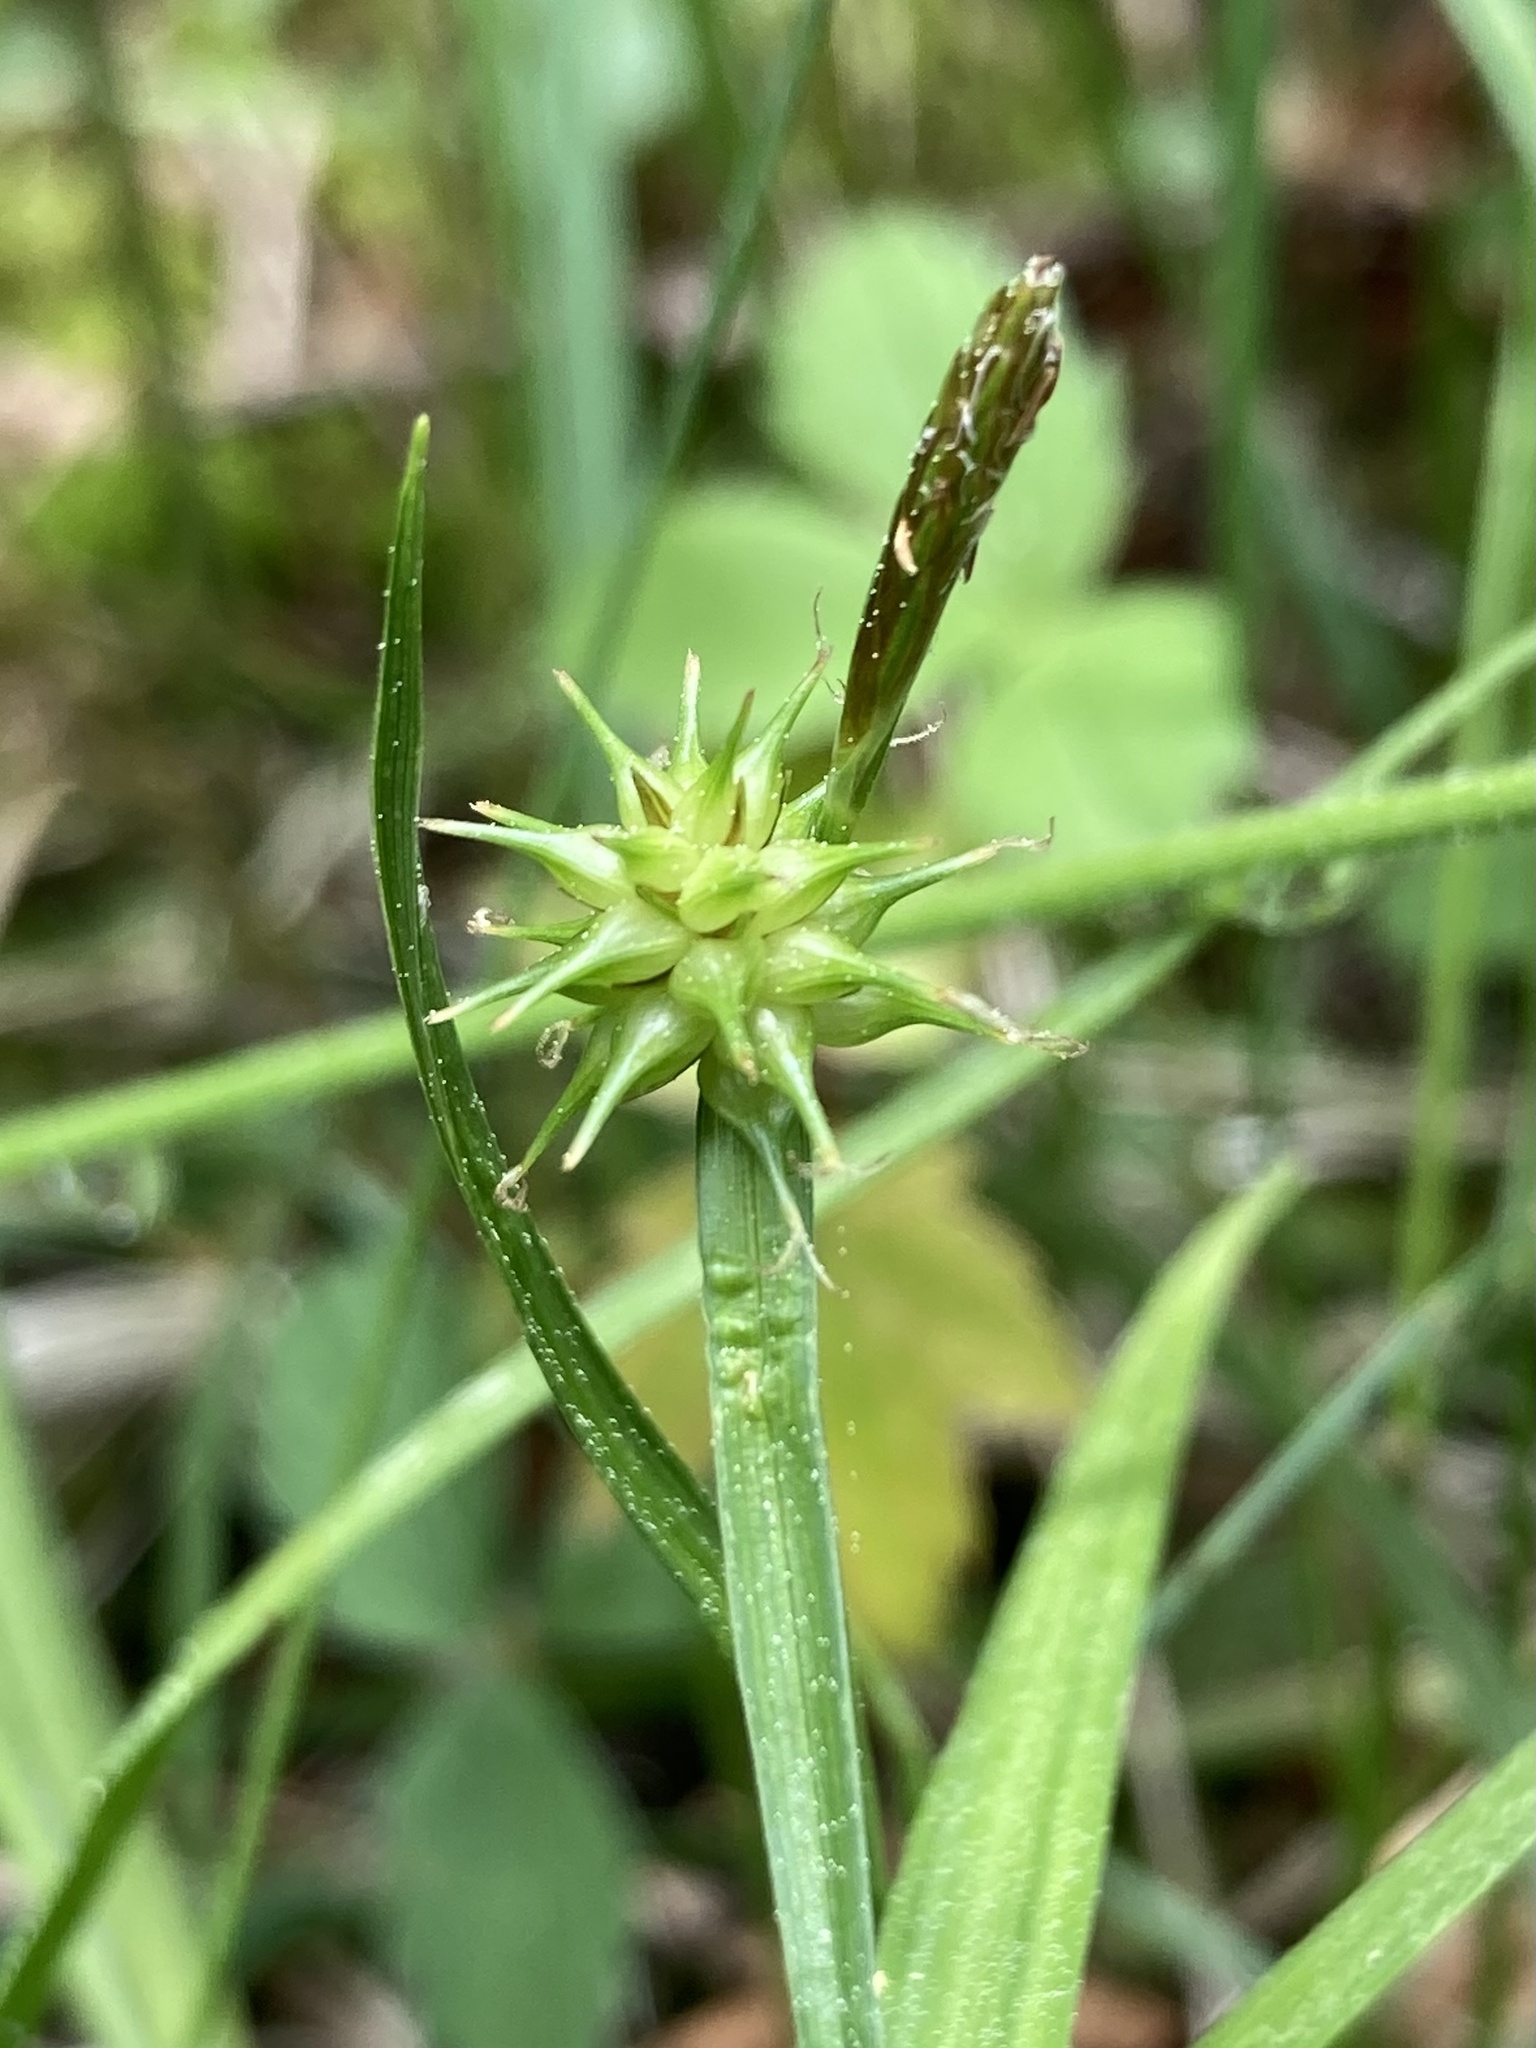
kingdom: Plantae
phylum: Tracheophyta
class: Liliopsida
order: Poales
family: Cyperaceae
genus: Carex
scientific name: Carex flava
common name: Large yellow-sedge
